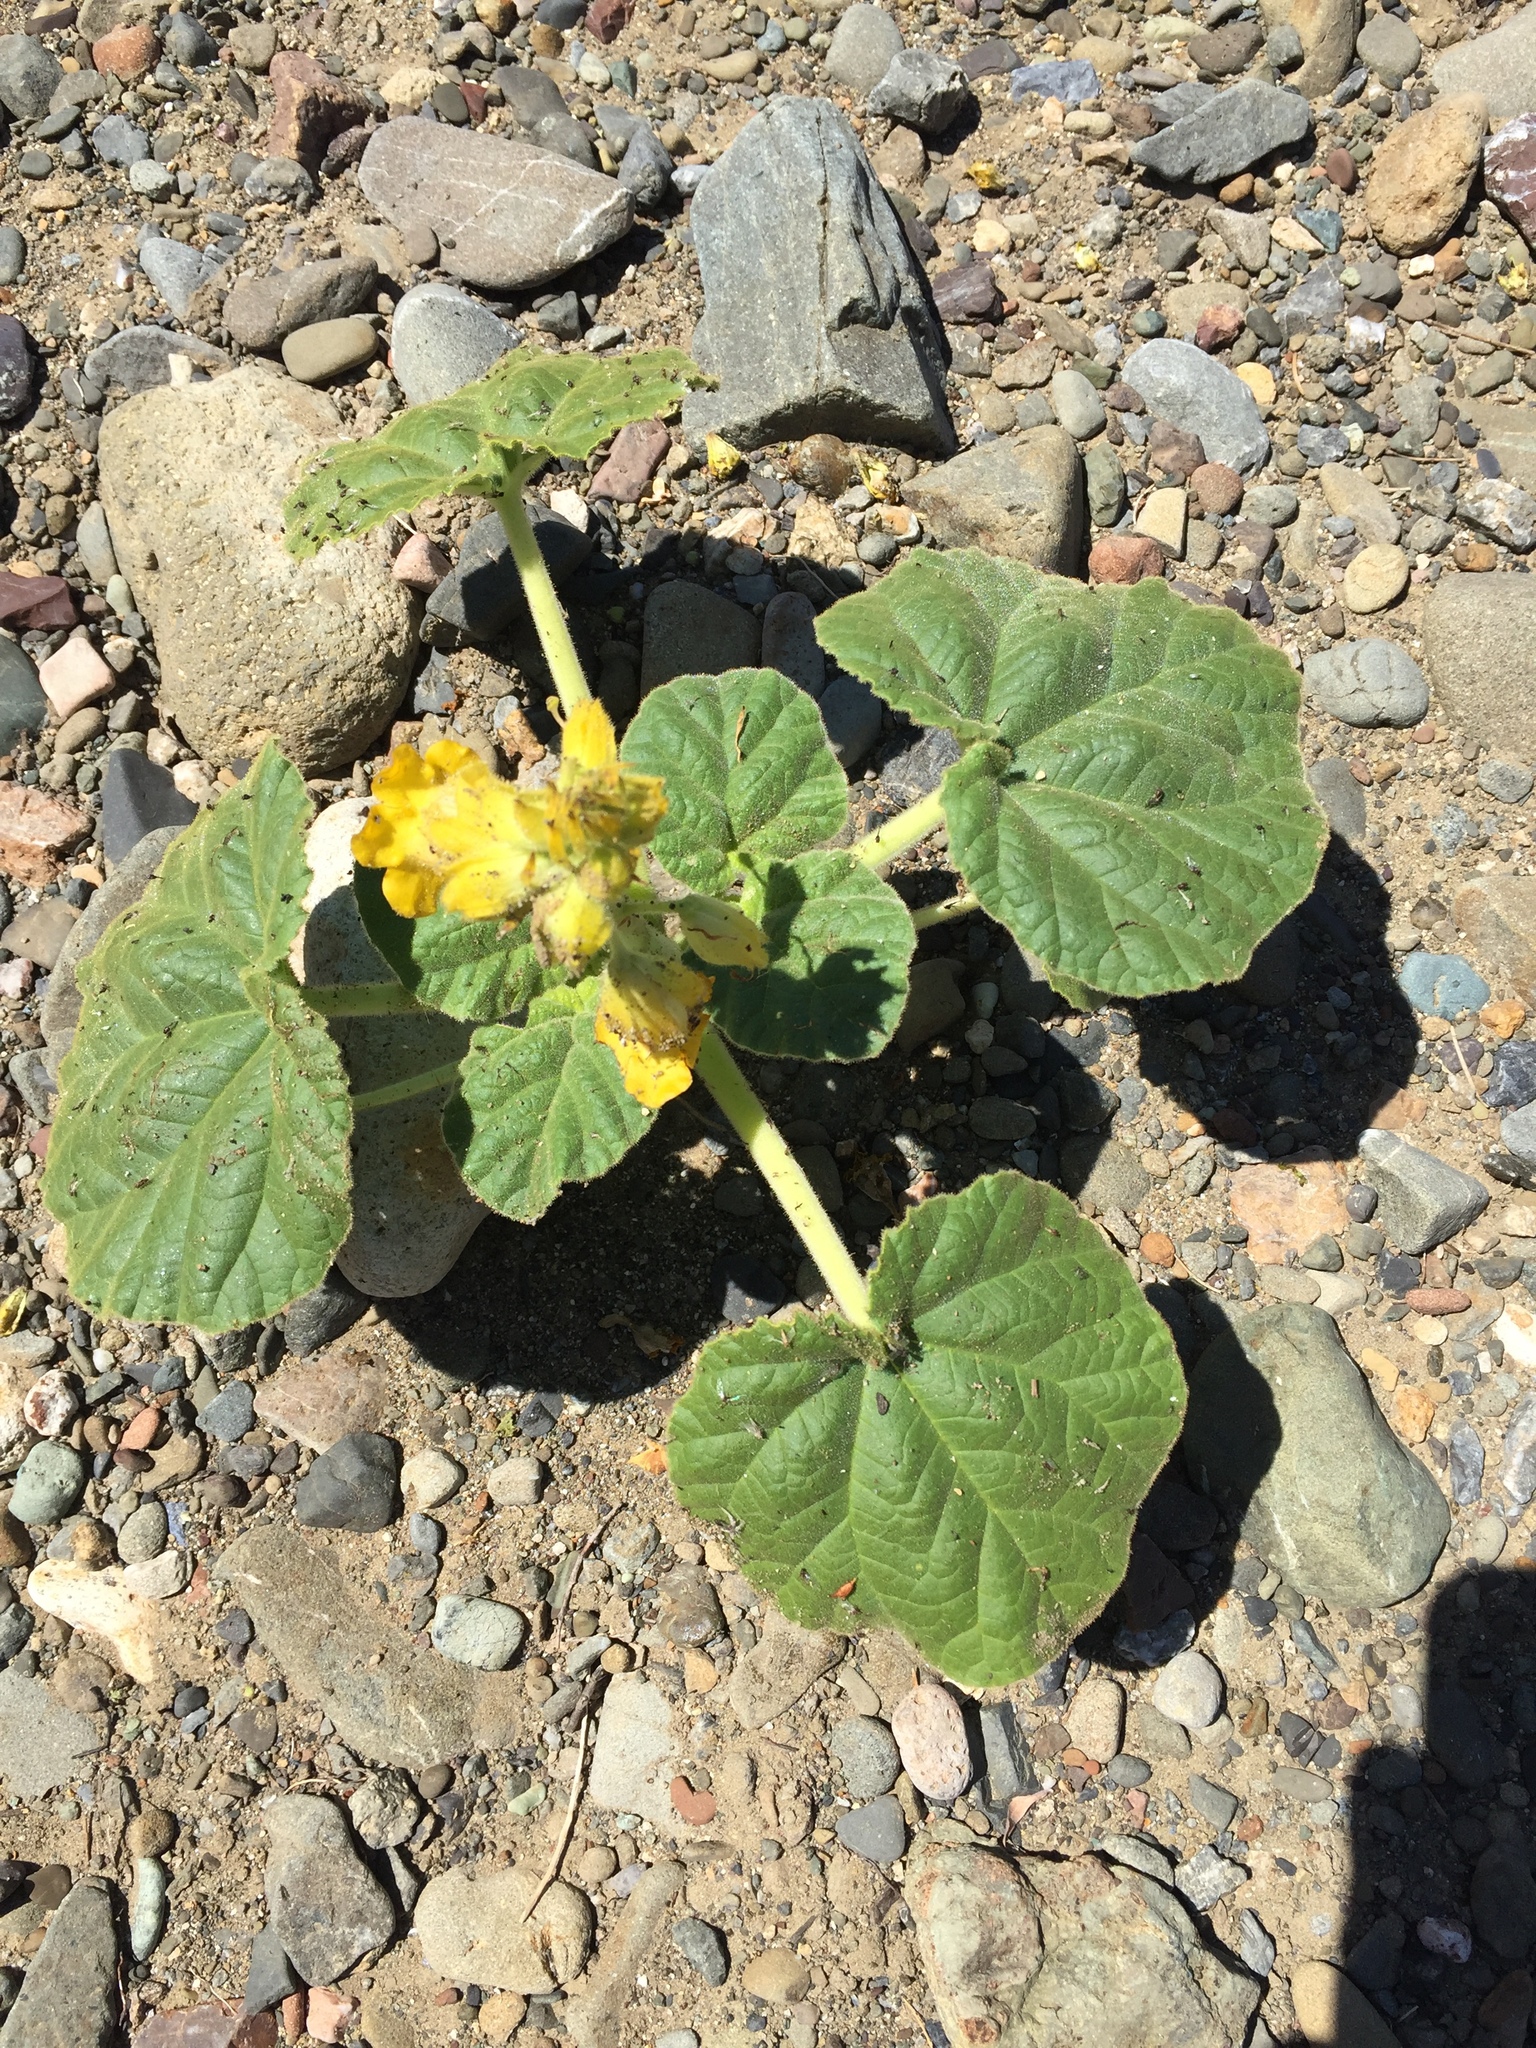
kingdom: Plantae
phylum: Tracheophyta
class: Magnoliopsida
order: Lamiales
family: Martyniaceae
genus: Ibicella
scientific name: Ibicella lutea
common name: Yellow unicorn-plant
